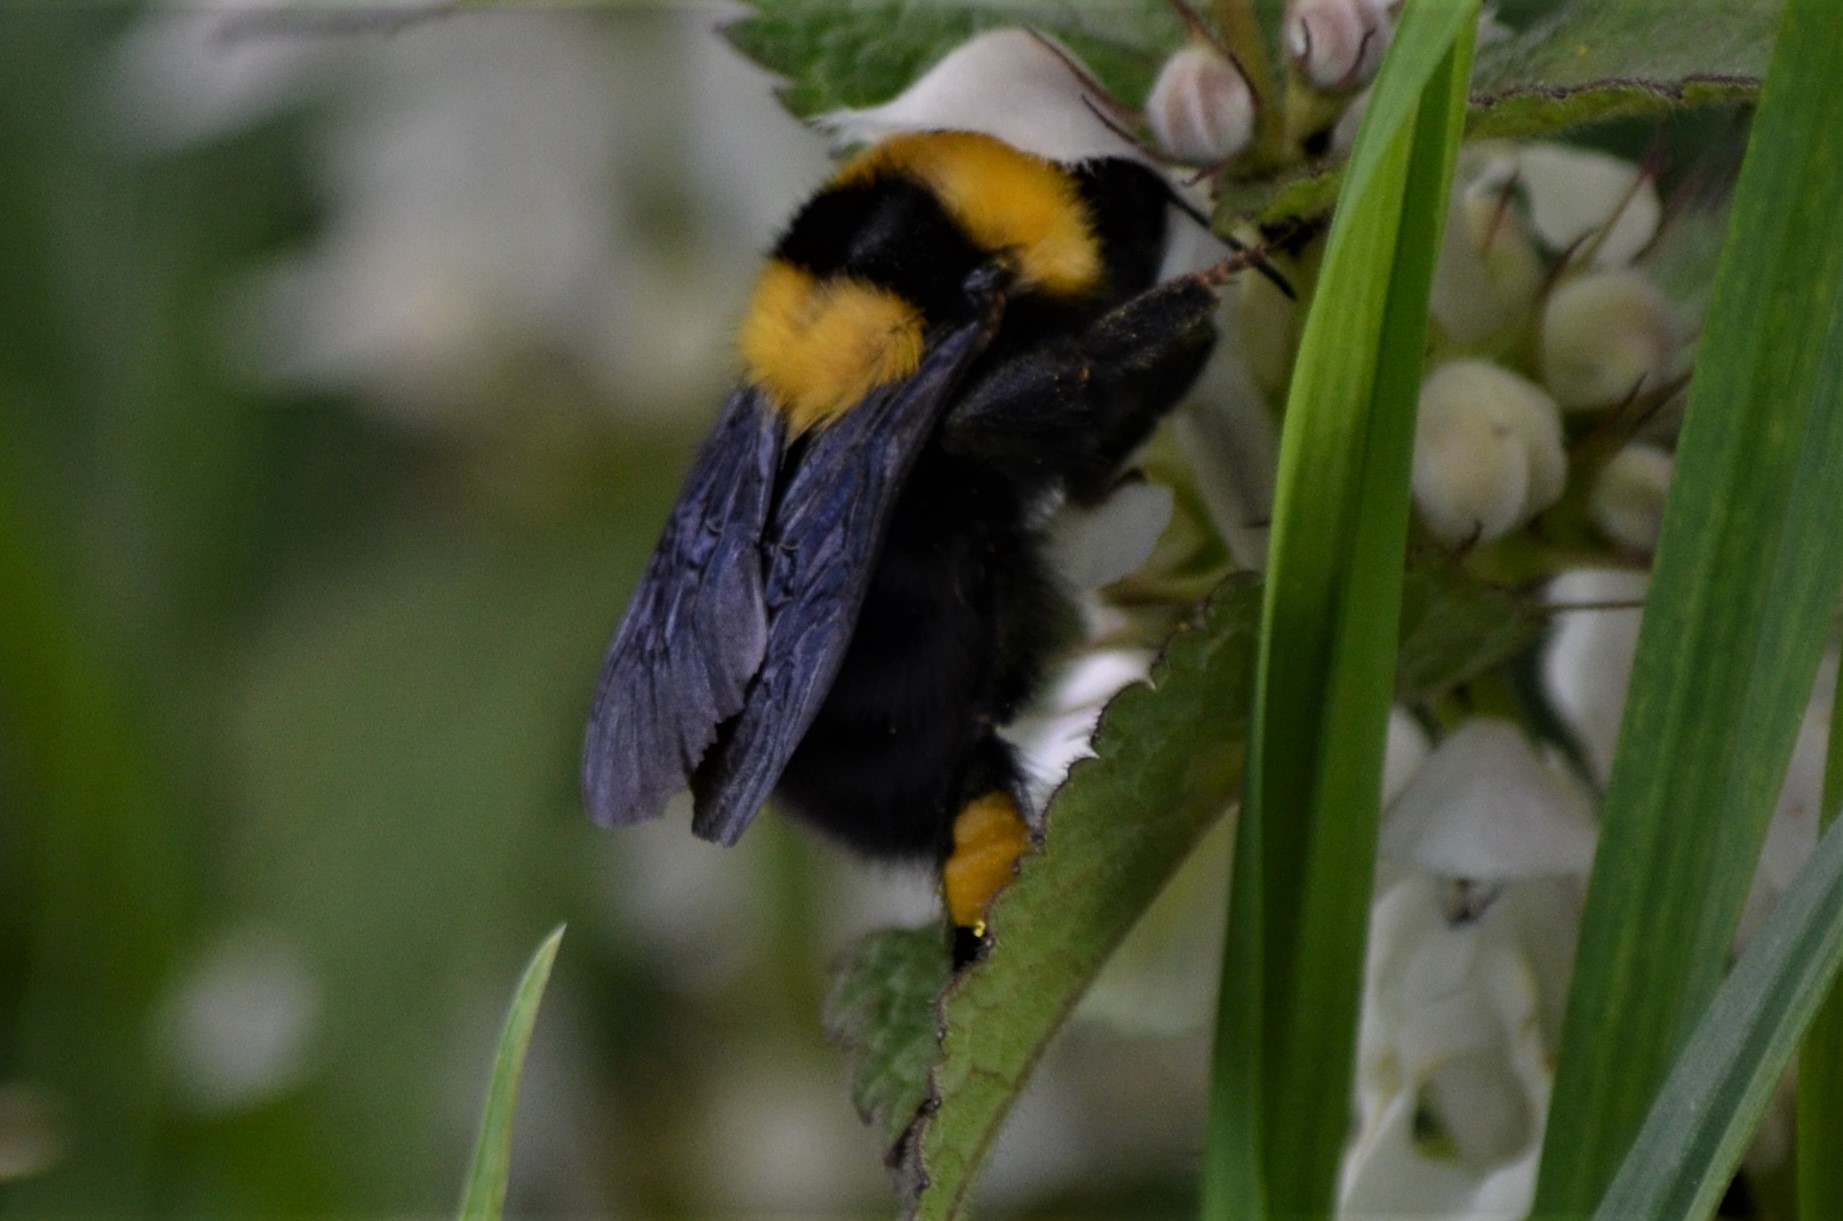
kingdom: Animalia
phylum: Arthropoda
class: Insecta
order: Hymenoptera
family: Apidae
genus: Bombus
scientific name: Bombus argillaceus
